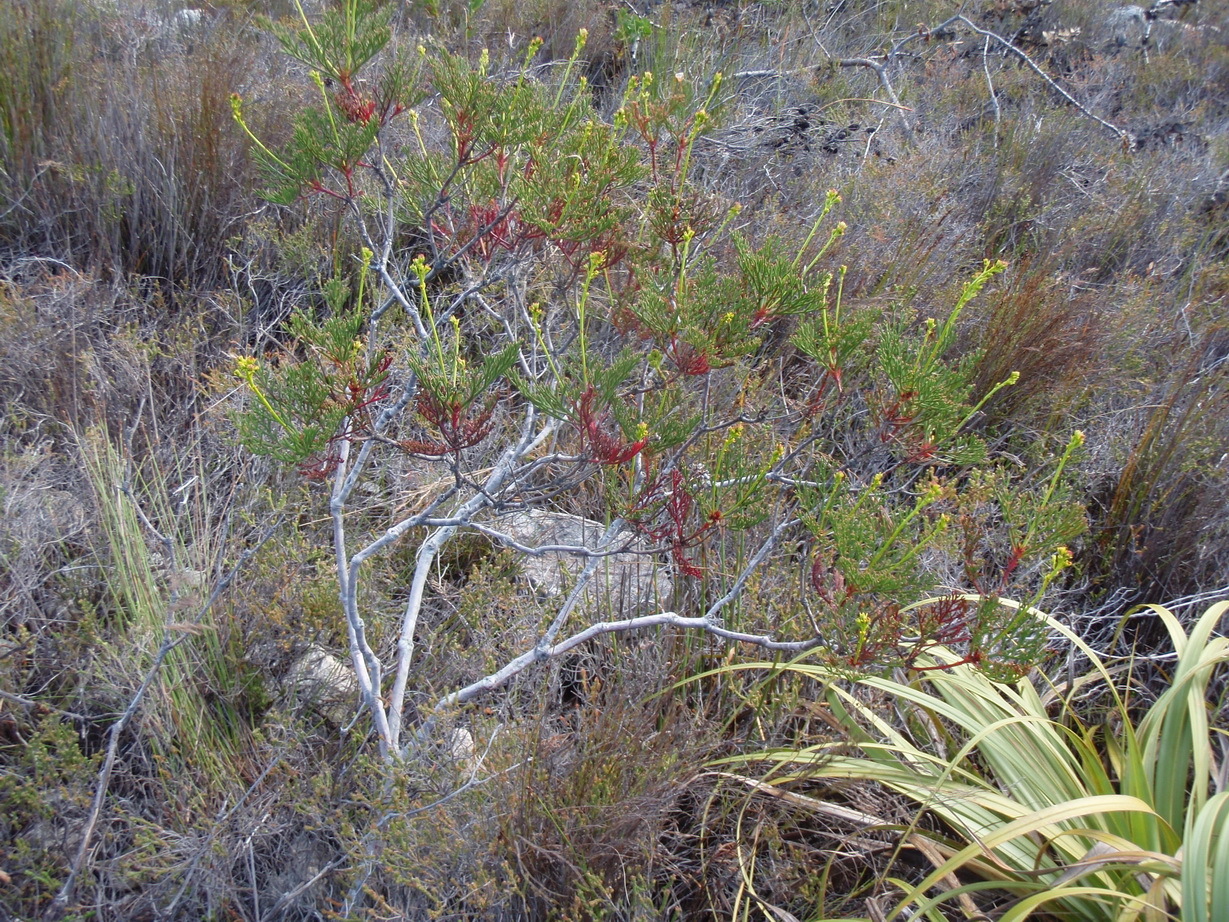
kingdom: Plantae
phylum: Tracheophyta
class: Magnoliopsida
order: Proteales
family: Proteaceae
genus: Serruria
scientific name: Serruria elongata
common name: Long-stalk spiderhead
